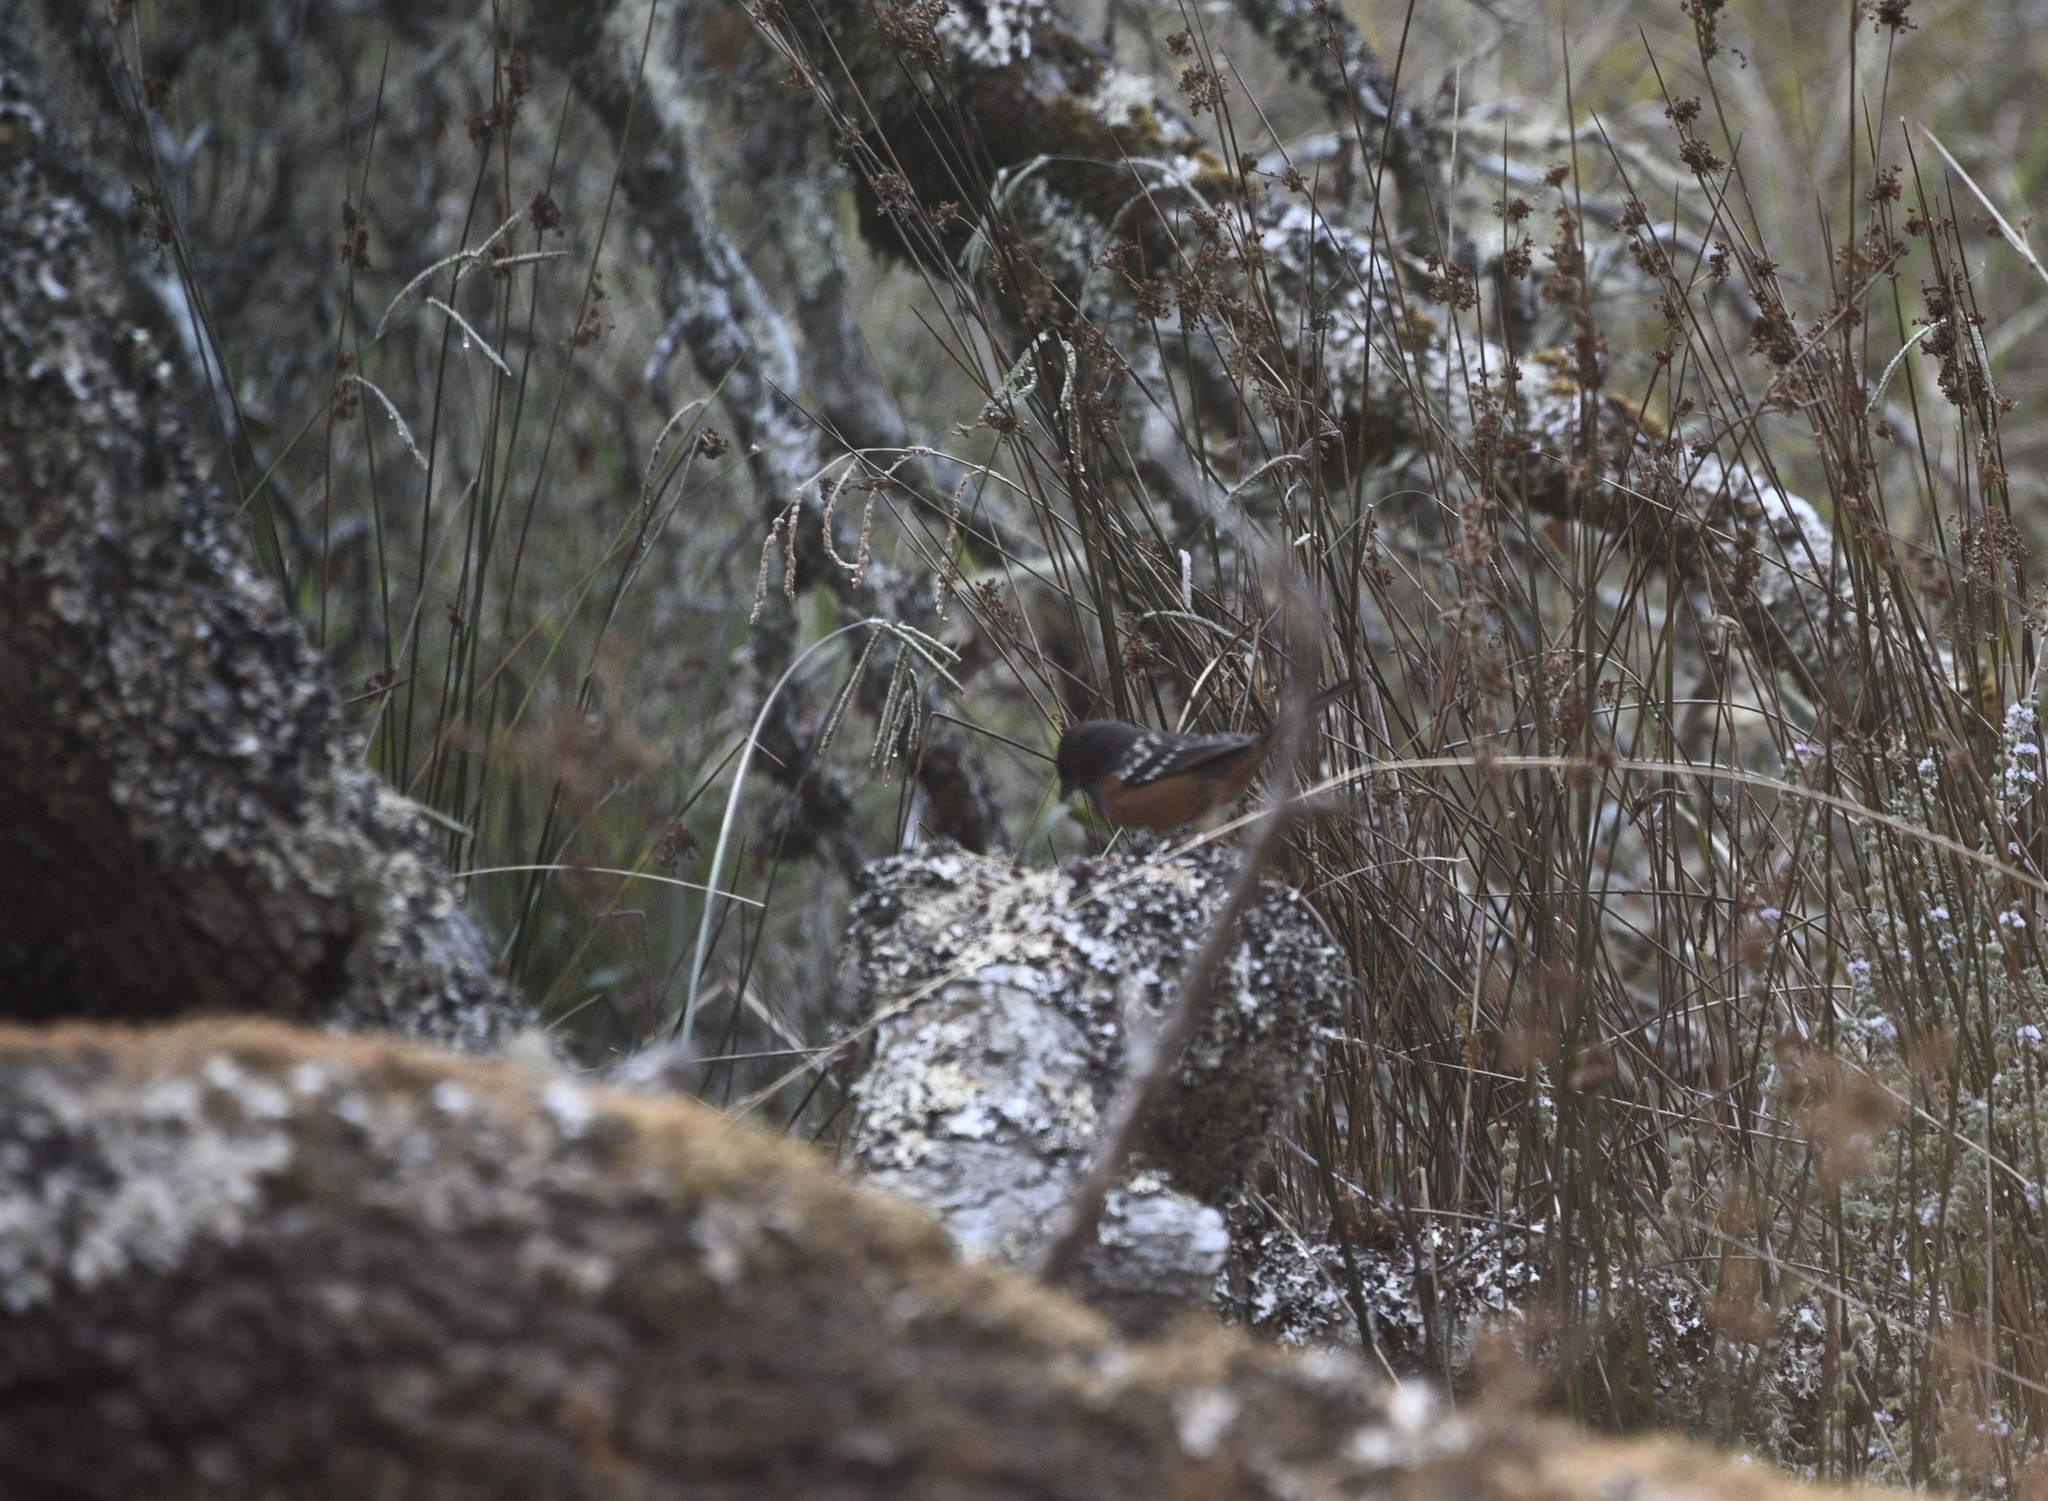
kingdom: Animalia
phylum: Chordata
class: Aves
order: Passeriformes
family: Passerellidae
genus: Pipilo
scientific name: Pipilo maculatus
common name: Spotted towhee
